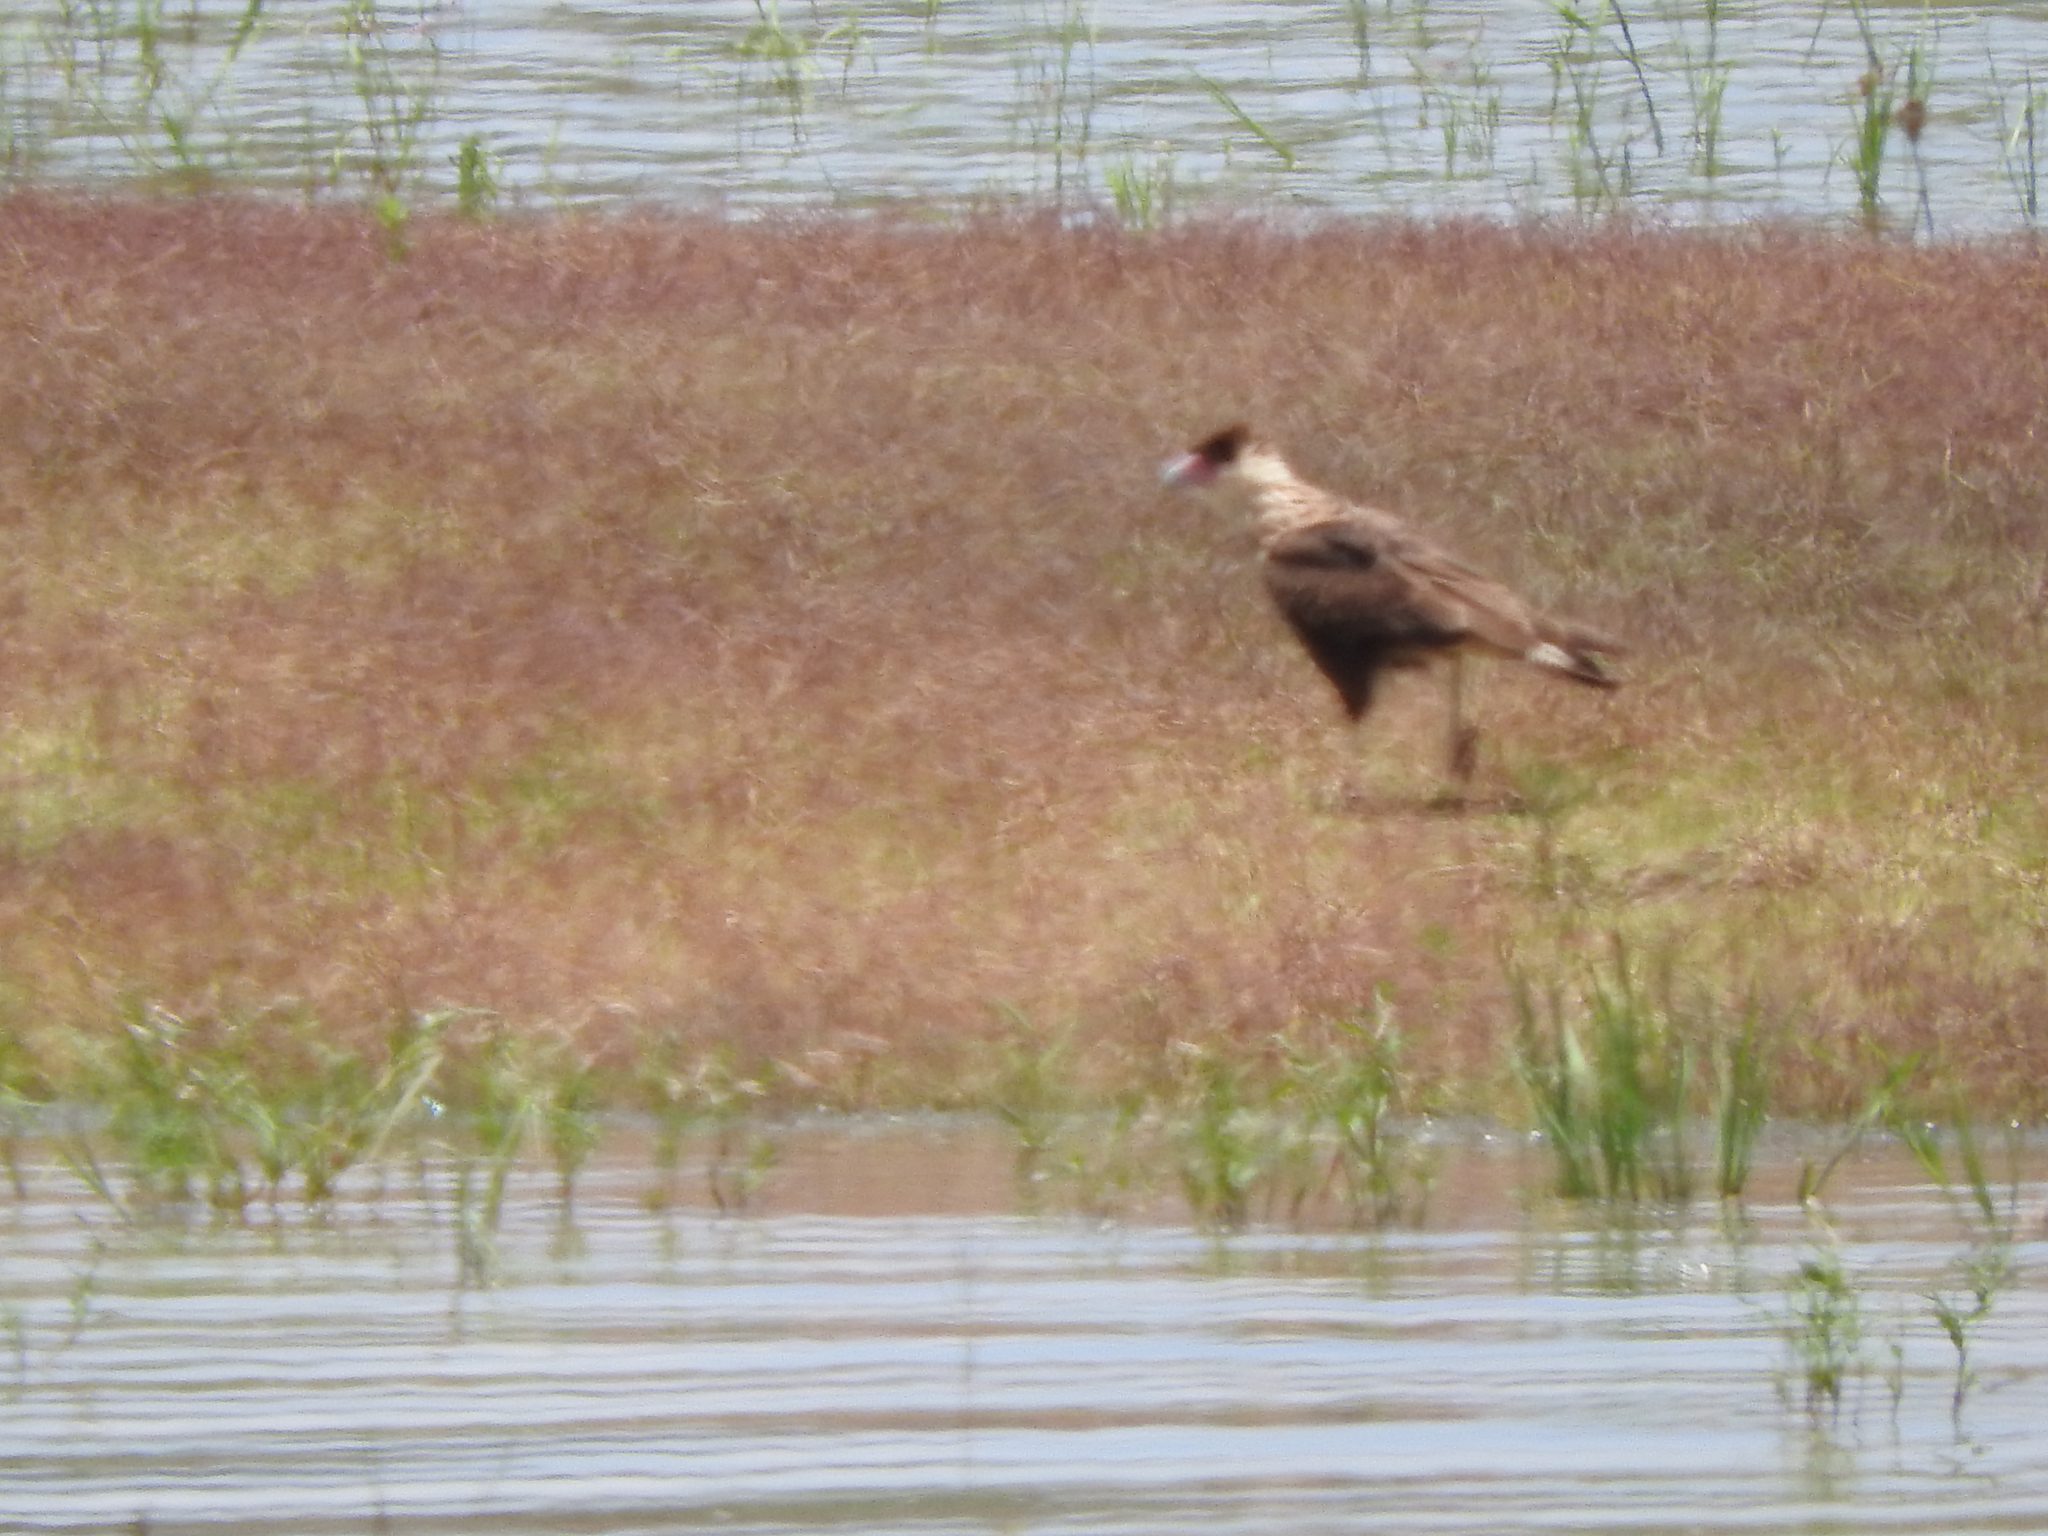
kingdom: Animalia
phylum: Chordata
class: Aves
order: Falconiformes
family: Falconidae
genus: Caracara
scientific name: Caracara plancus
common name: Southern caracara
